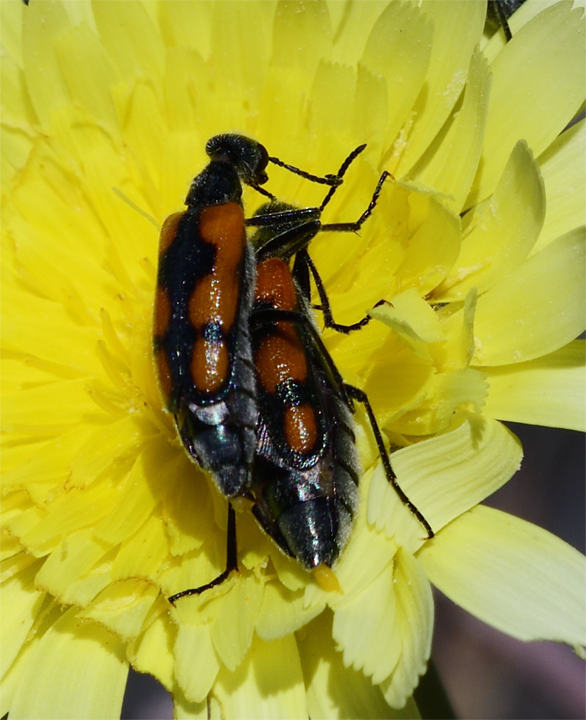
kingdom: Animalia
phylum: Arthropoda
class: Insecta
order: Coleoptera
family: Meloidae
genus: Eupompha
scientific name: Eupompha elegans
